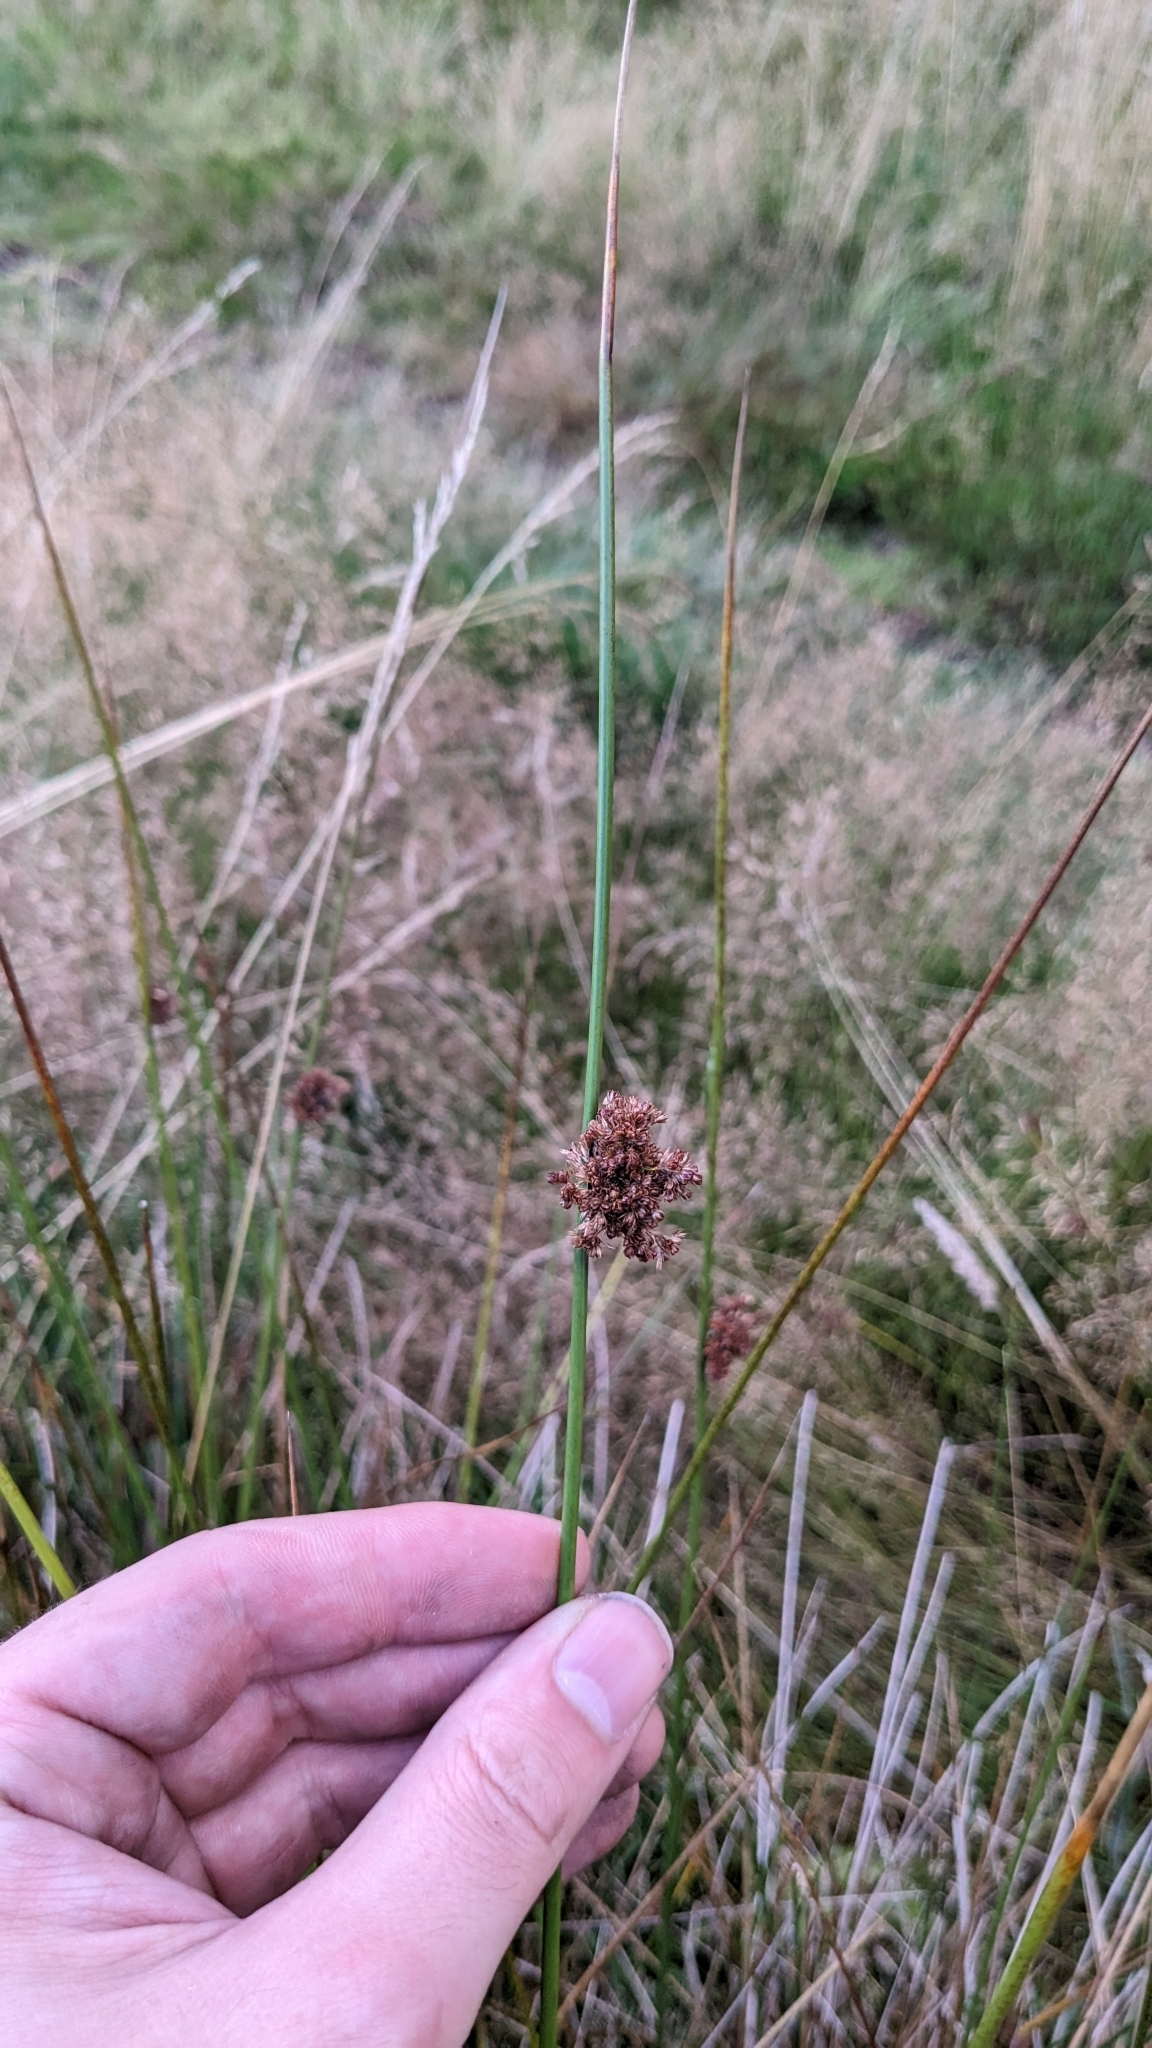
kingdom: Plantae
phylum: Tracheophyta
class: Liliopsida
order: Poales
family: Juncaceae
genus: Juncus
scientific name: Juncus effusus
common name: Soft rush
